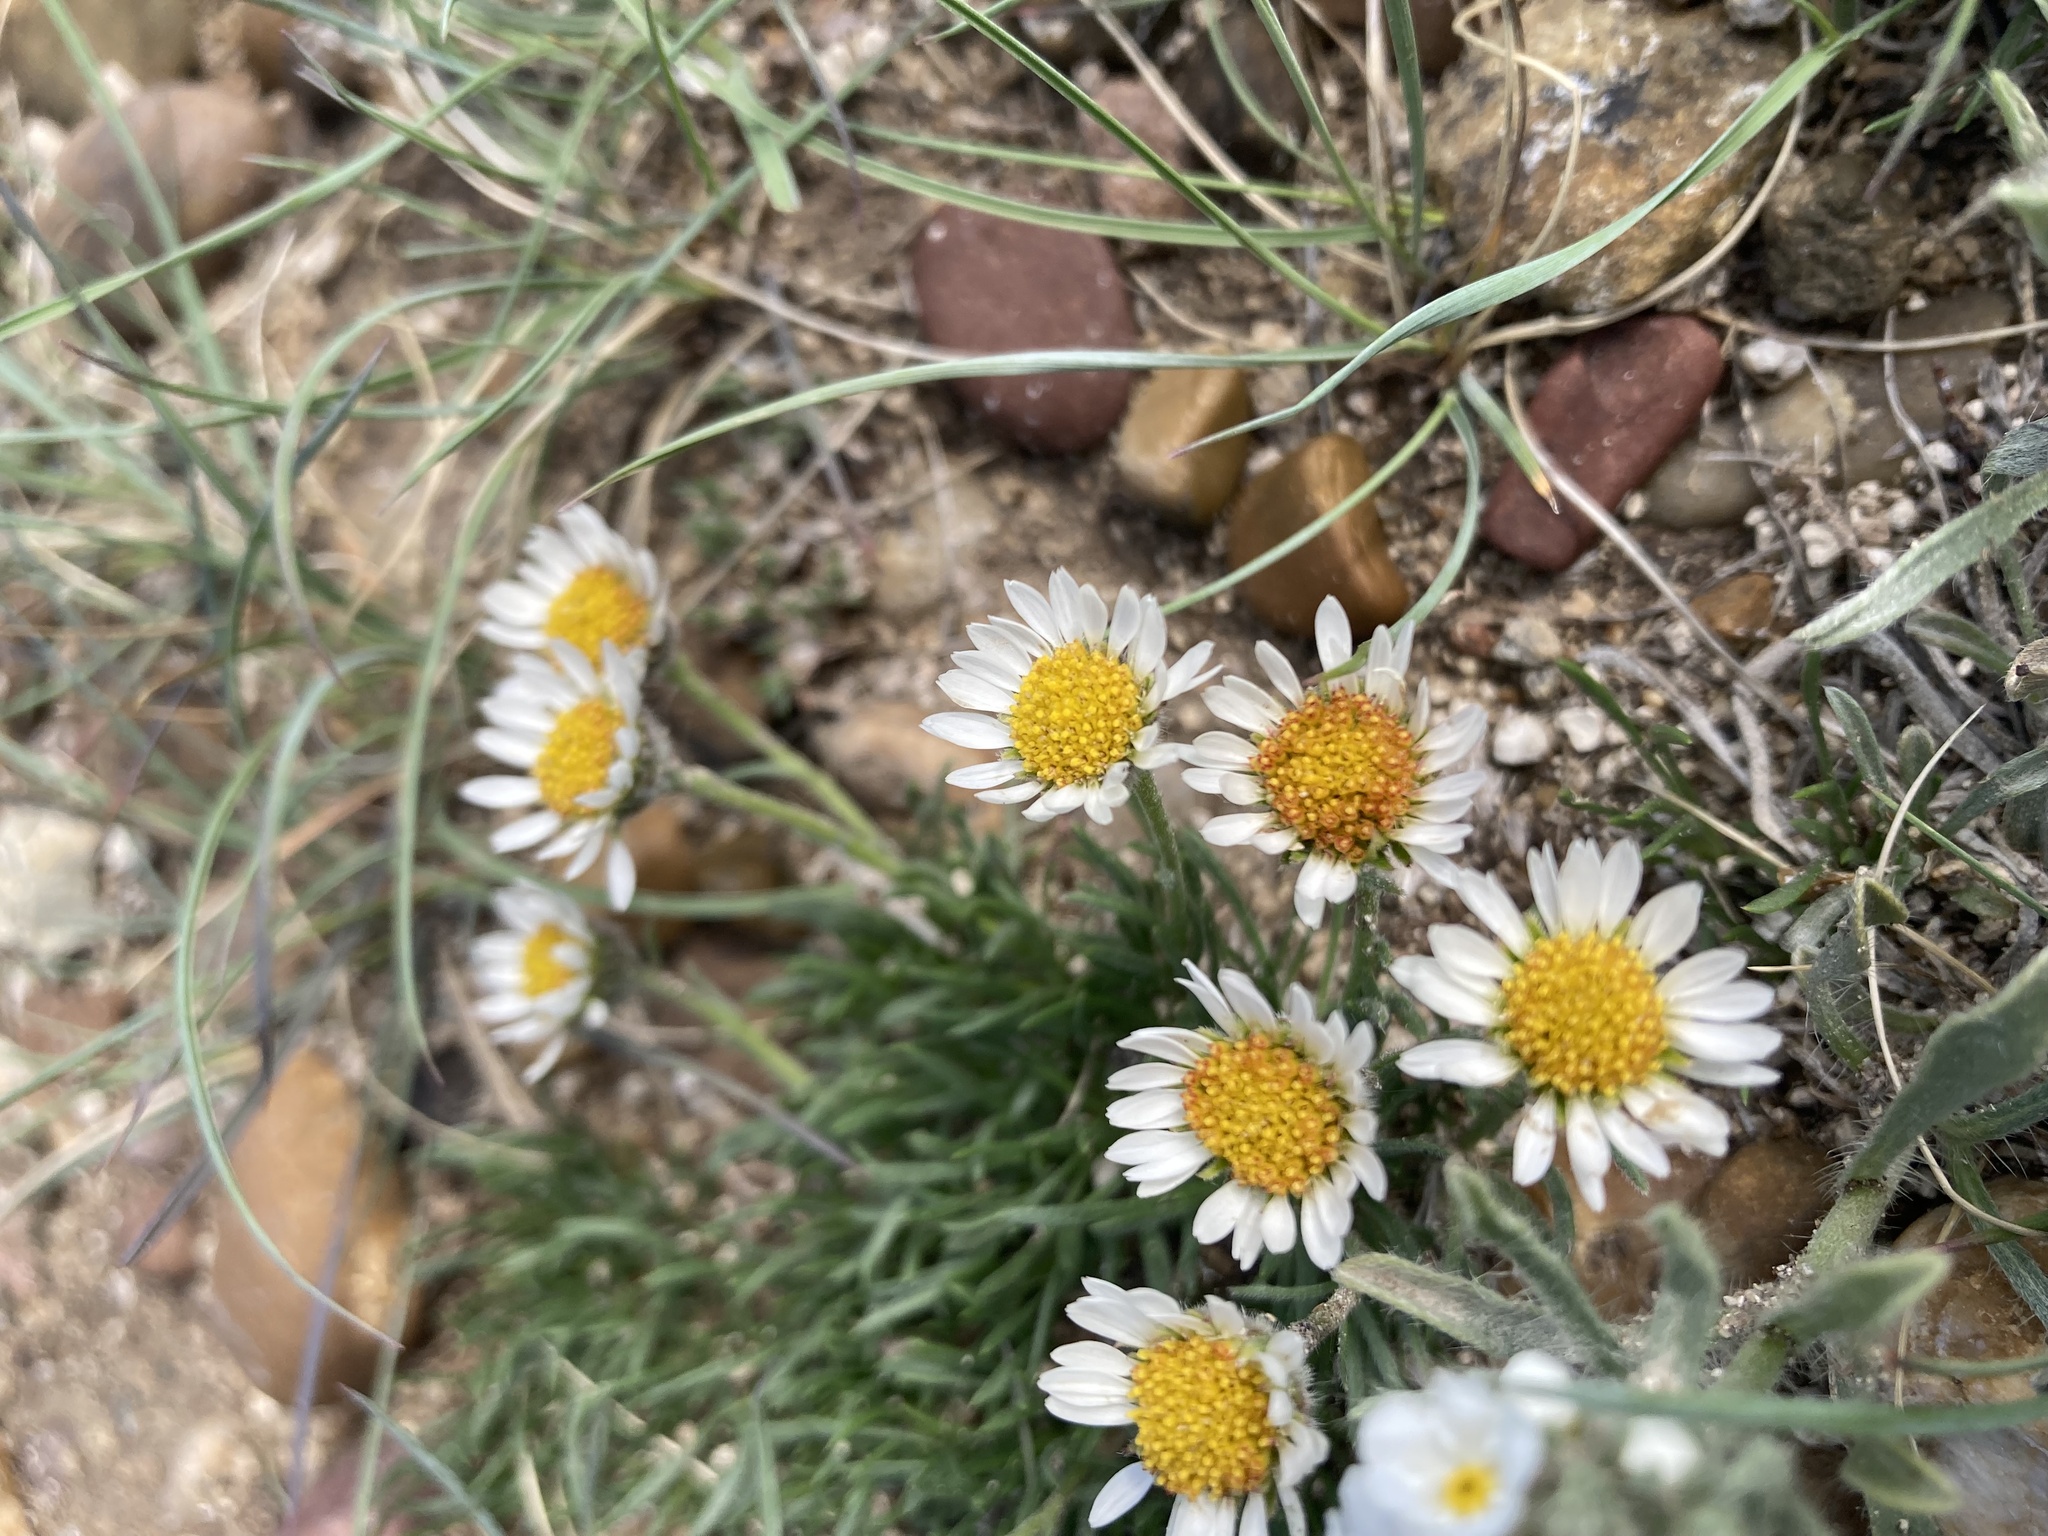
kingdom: Plantae
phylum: Tracheophyta
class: Magnoliopsida
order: Asterales
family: Asteraceae
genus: Erigeron
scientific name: Erigeron radicatus
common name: Dwarf fleabane
